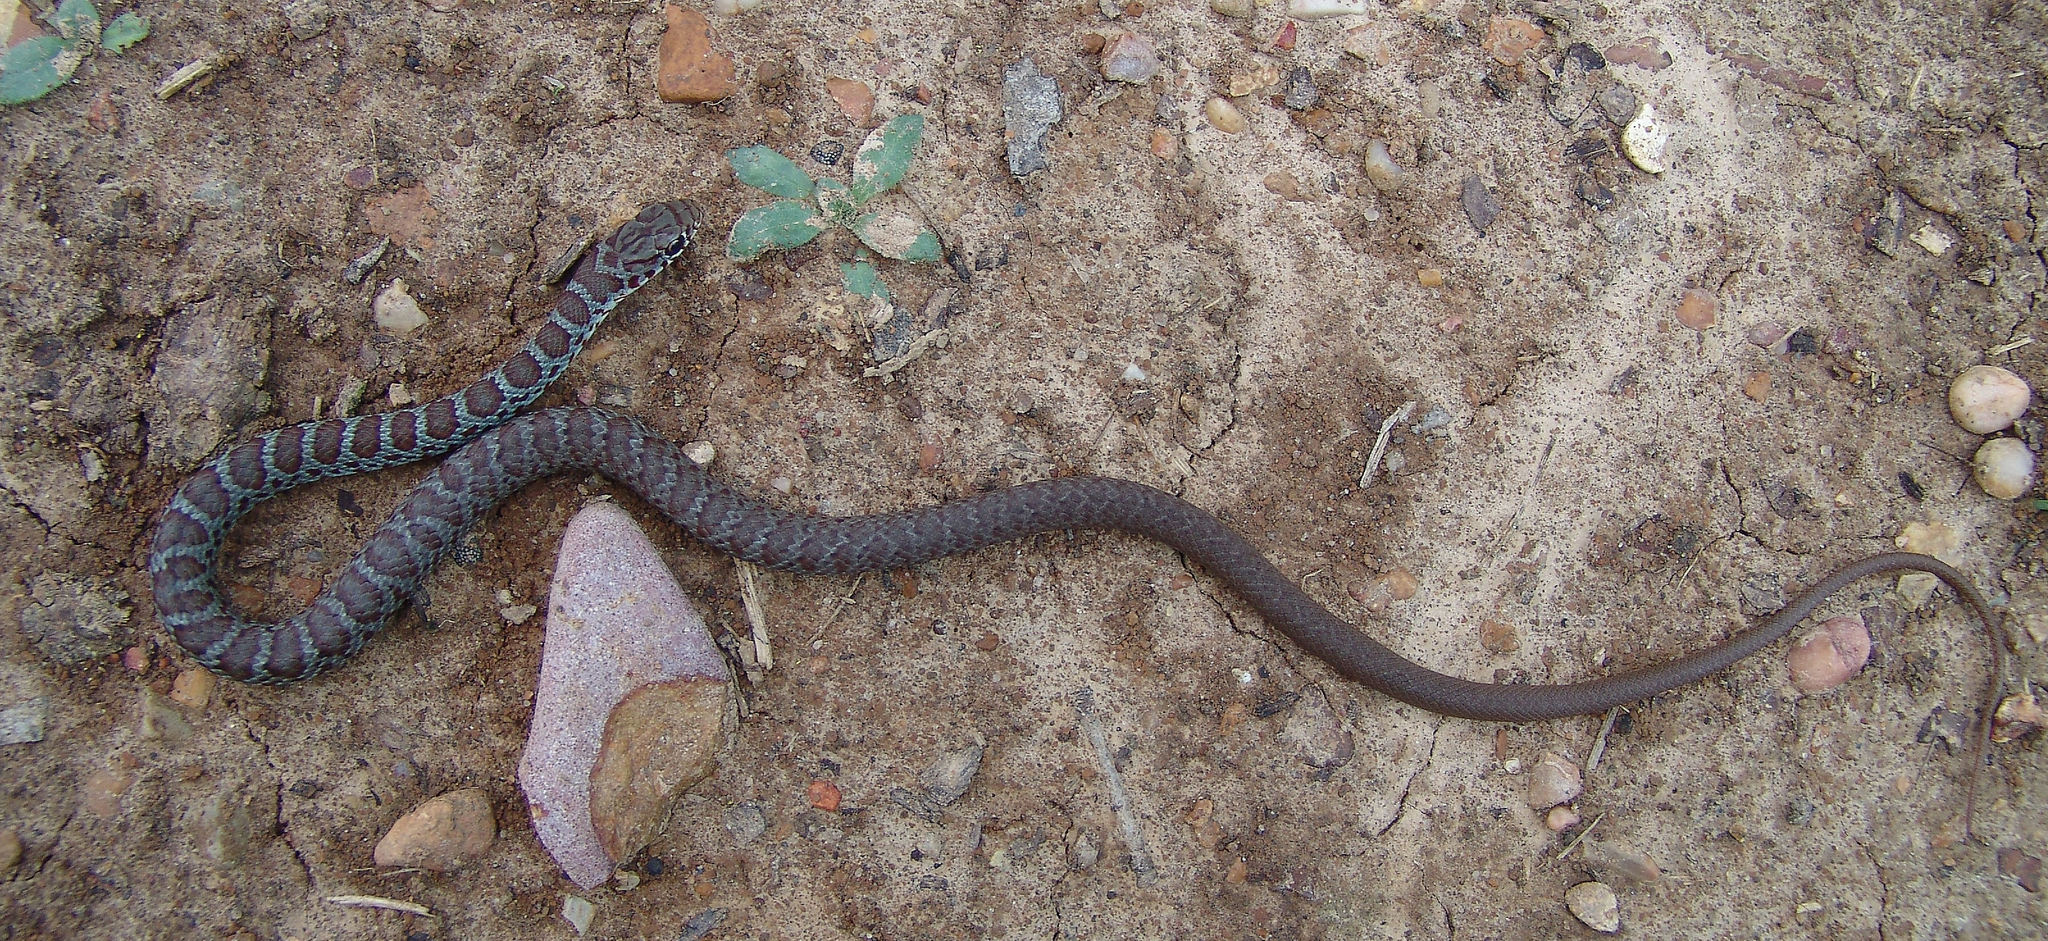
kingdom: Animalia
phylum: Chordata
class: Squamata
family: Colubridae
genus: Coluber
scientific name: Coluber constrictor
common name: Eastern racer
